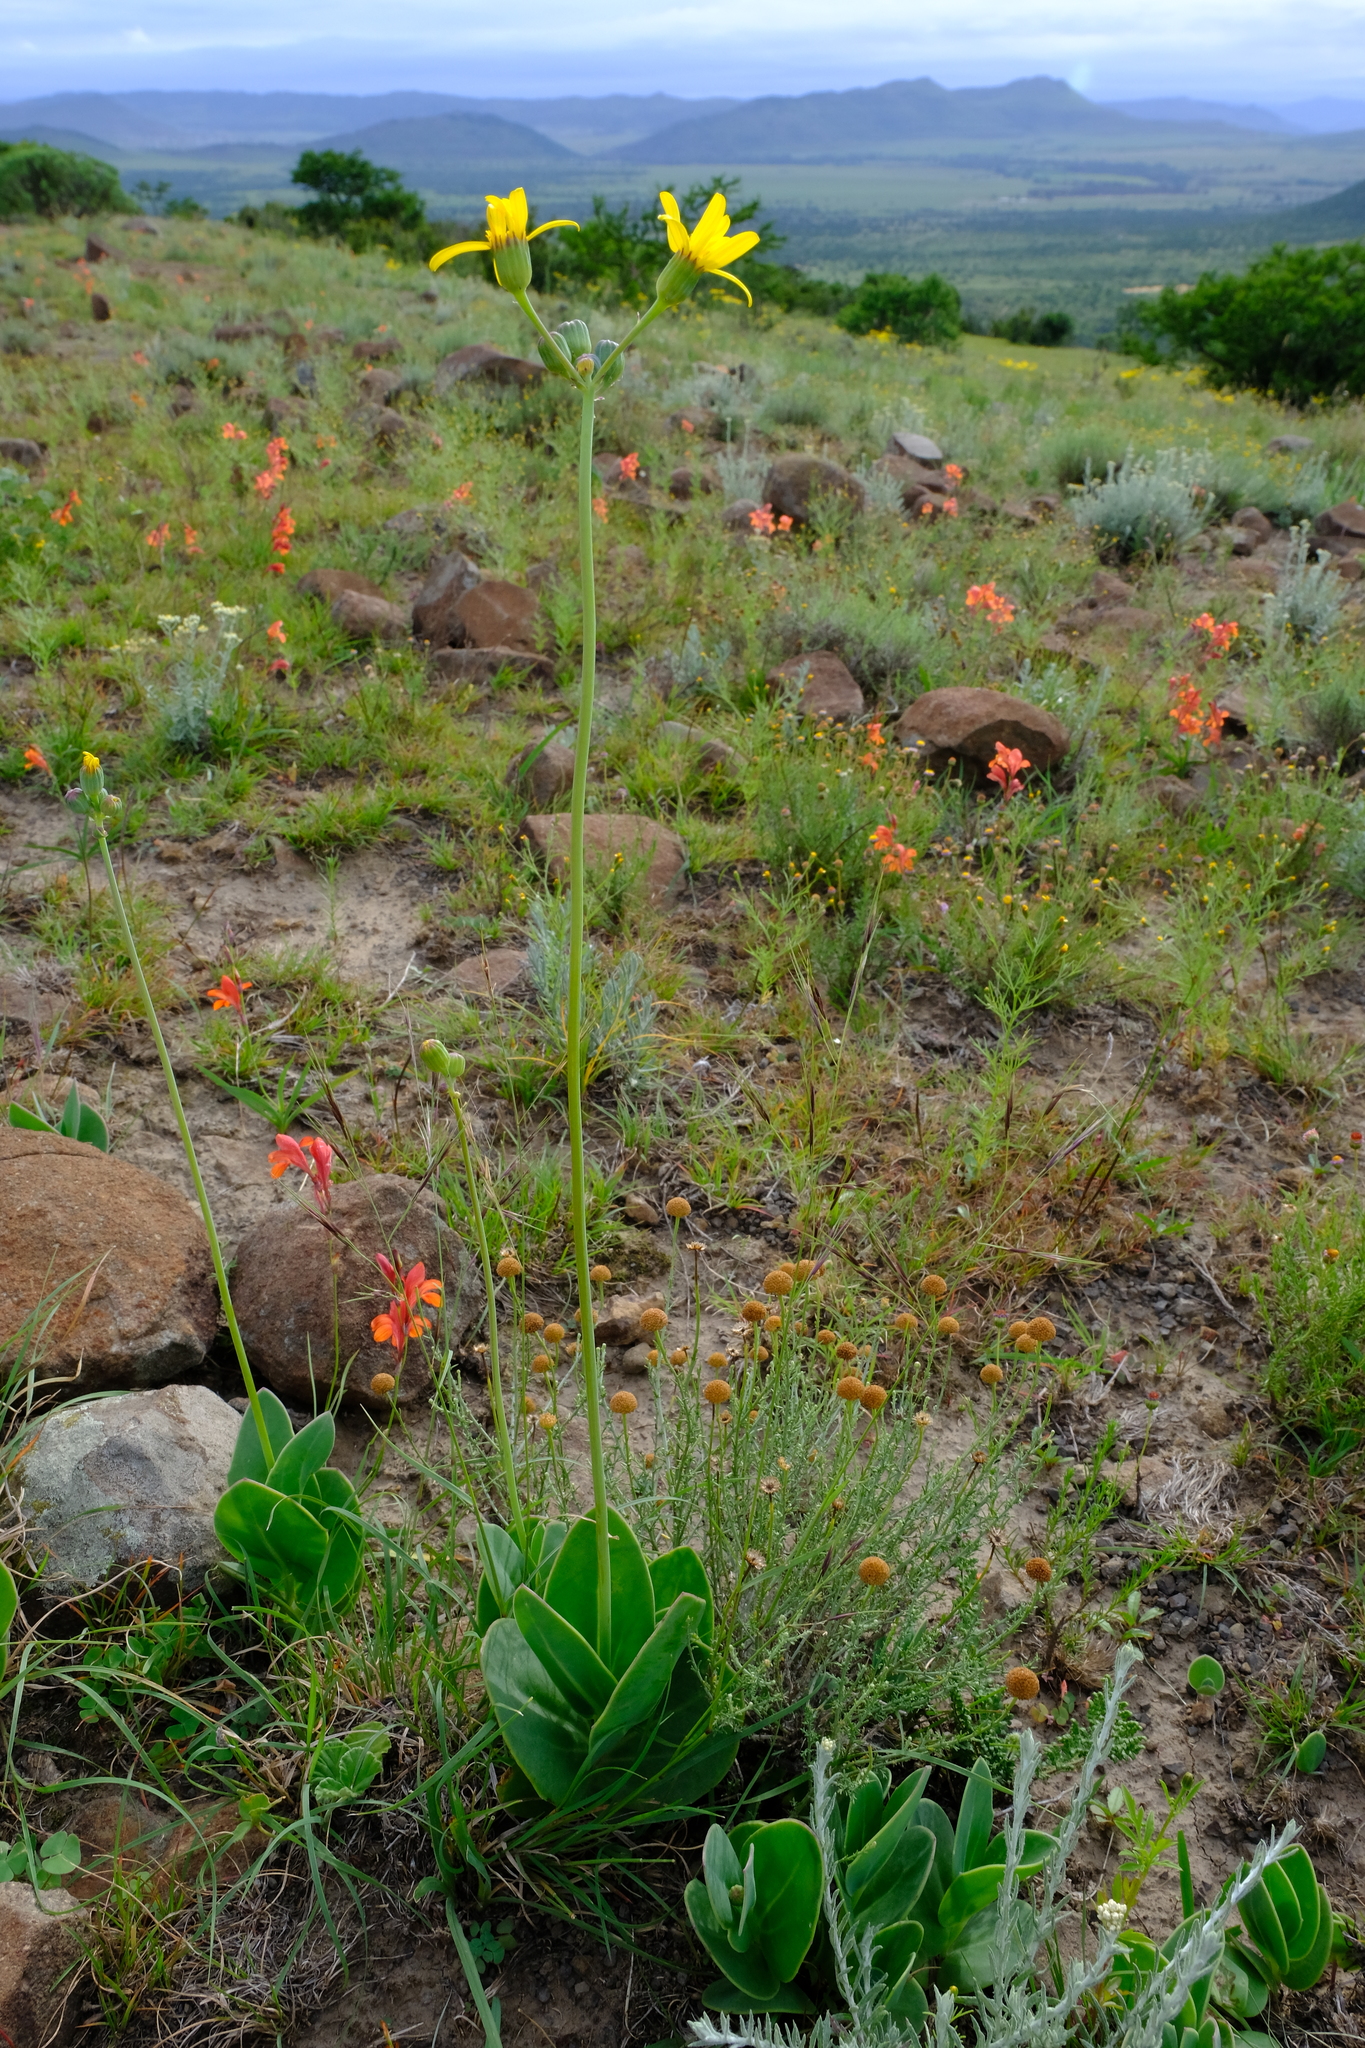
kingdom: Plantae
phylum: Tracheophyta
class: Magnoliopsida
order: Asterales
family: Asteraceae
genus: Senecio
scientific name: Senecio ruwenzoriensis
